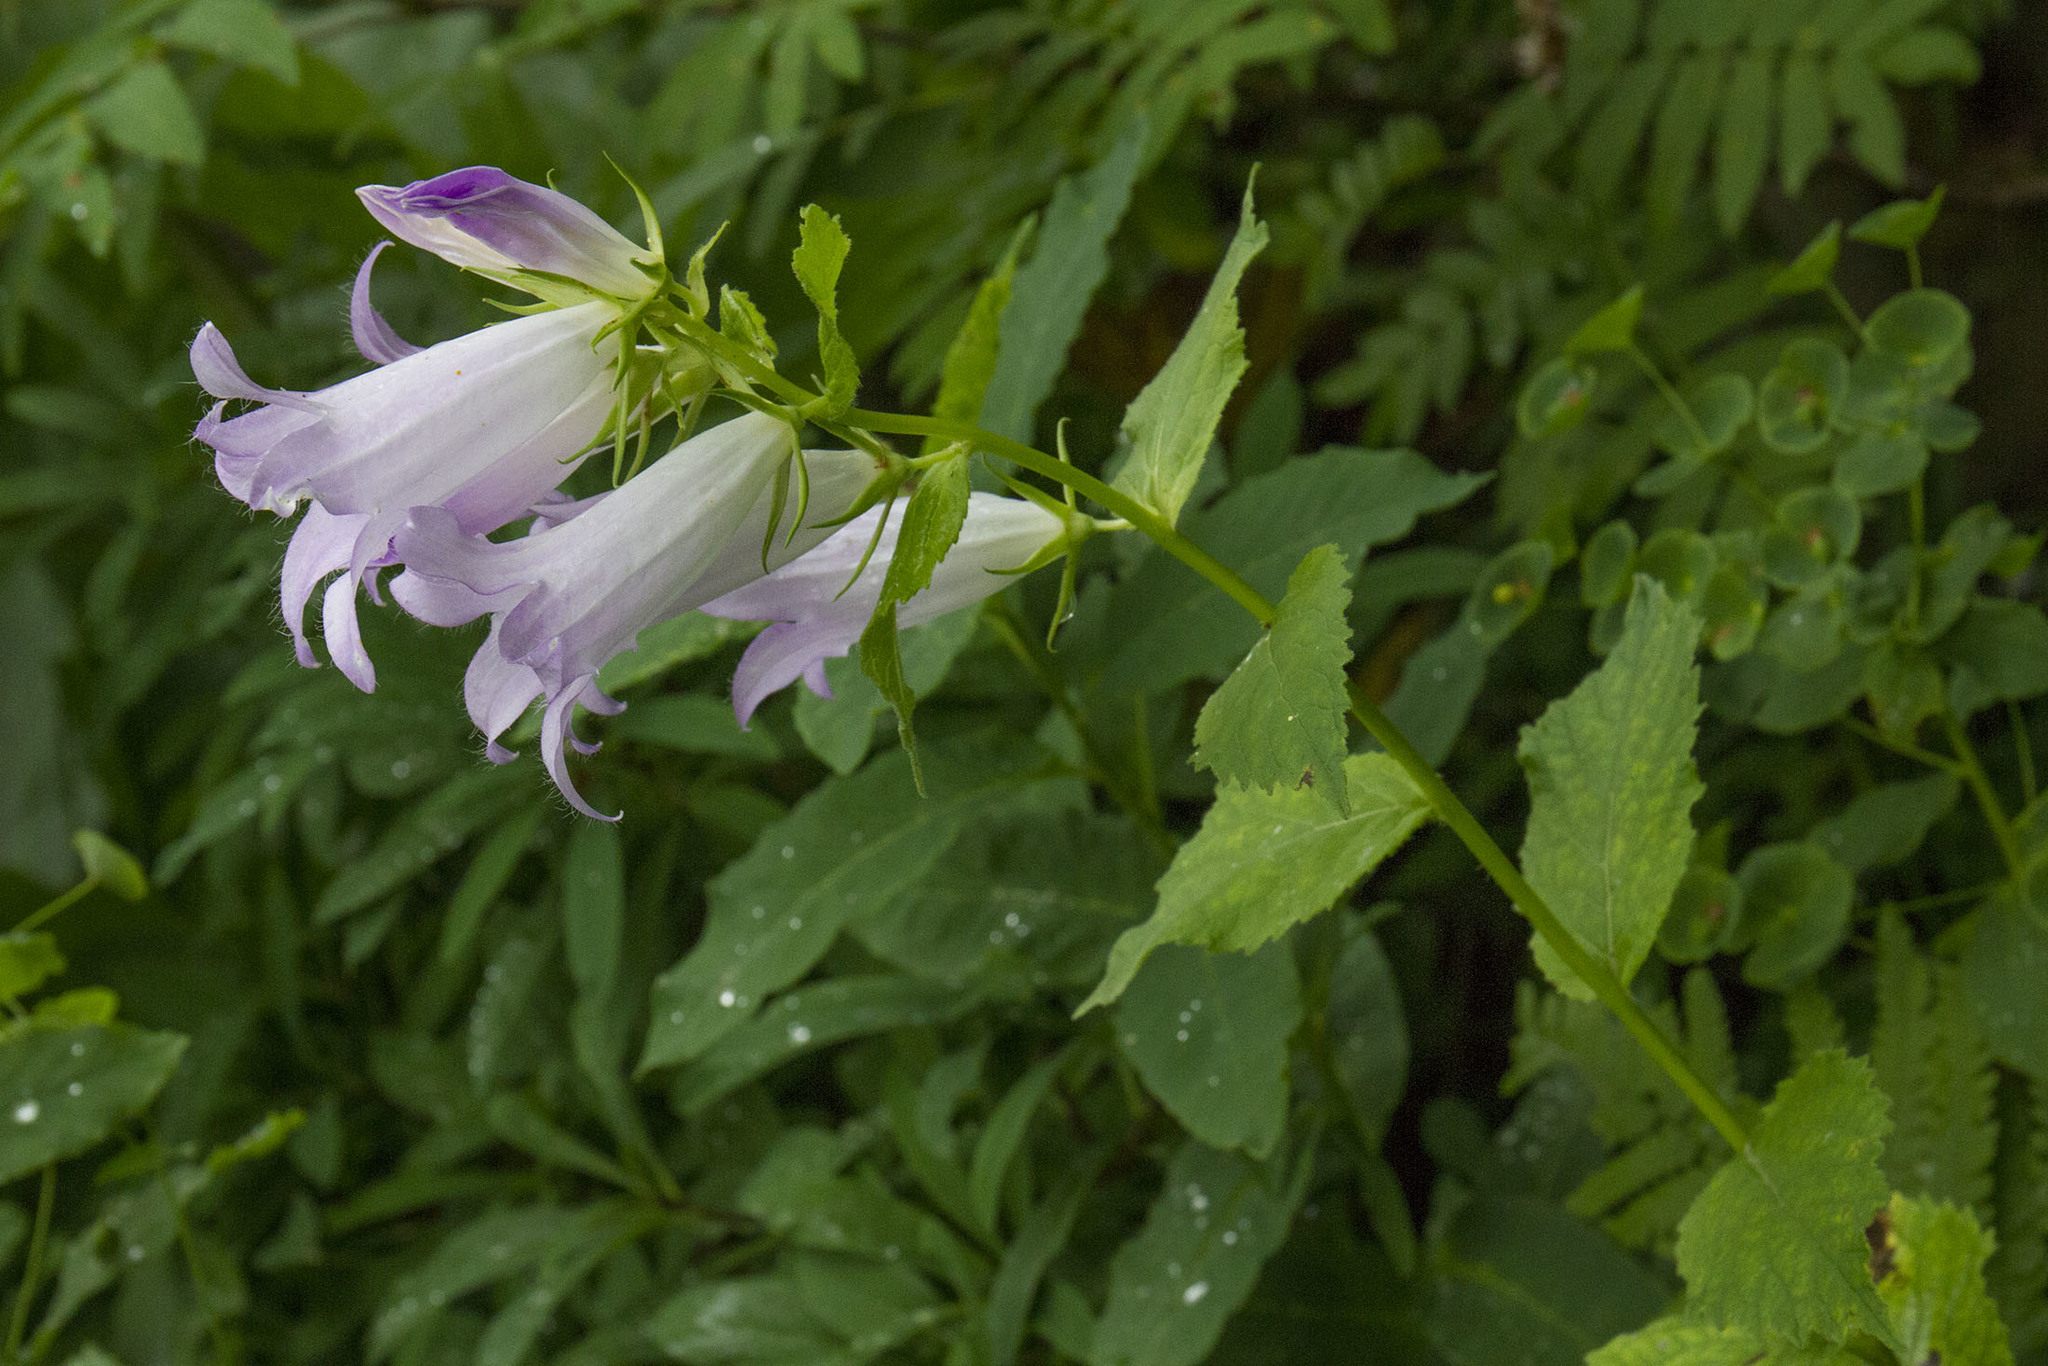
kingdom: Plantae
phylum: Tracheophyta
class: Magnoliopsida
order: Asterales
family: Campanulaceae
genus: Campanula
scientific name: Campanula latifolia
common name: Giant bellflower
